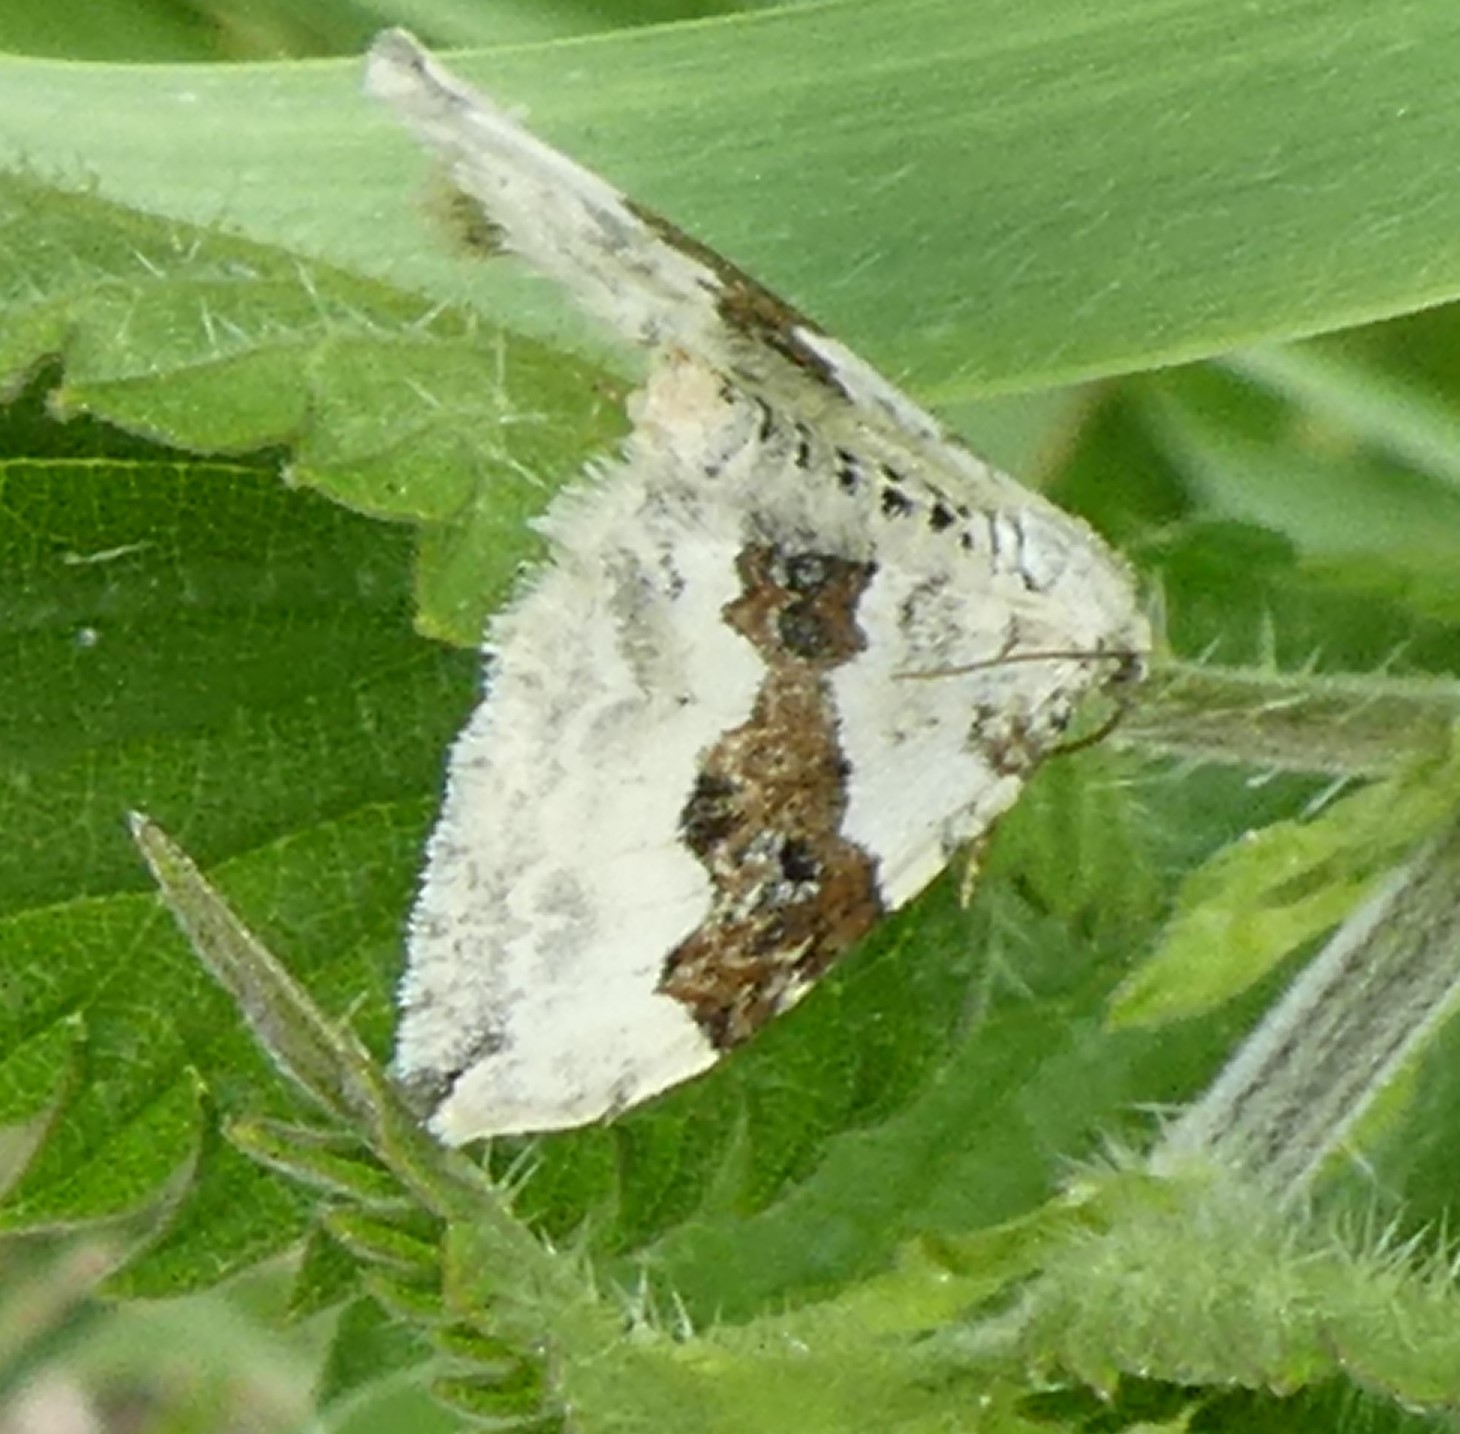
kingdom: Animalia
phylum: Arthropoda
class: Insecta
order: Lepidoptera
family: Geometridae
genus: Xanthorhoe
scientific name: Xanthorhoe montanata
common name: Silver-ground carpet
